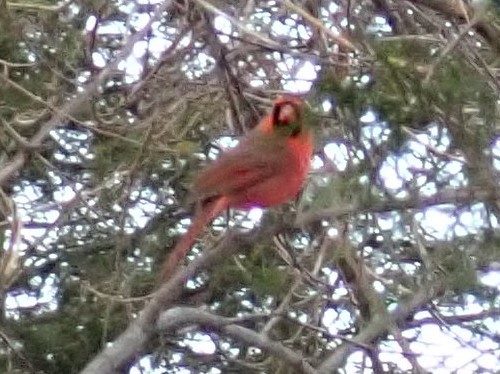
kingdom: Animalia
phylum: Chordata
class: Aves
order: Passeriformes
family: Cardinalidae
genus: Cardinalis
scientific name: Cardinalis cardinalis
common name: Northern cardinal
